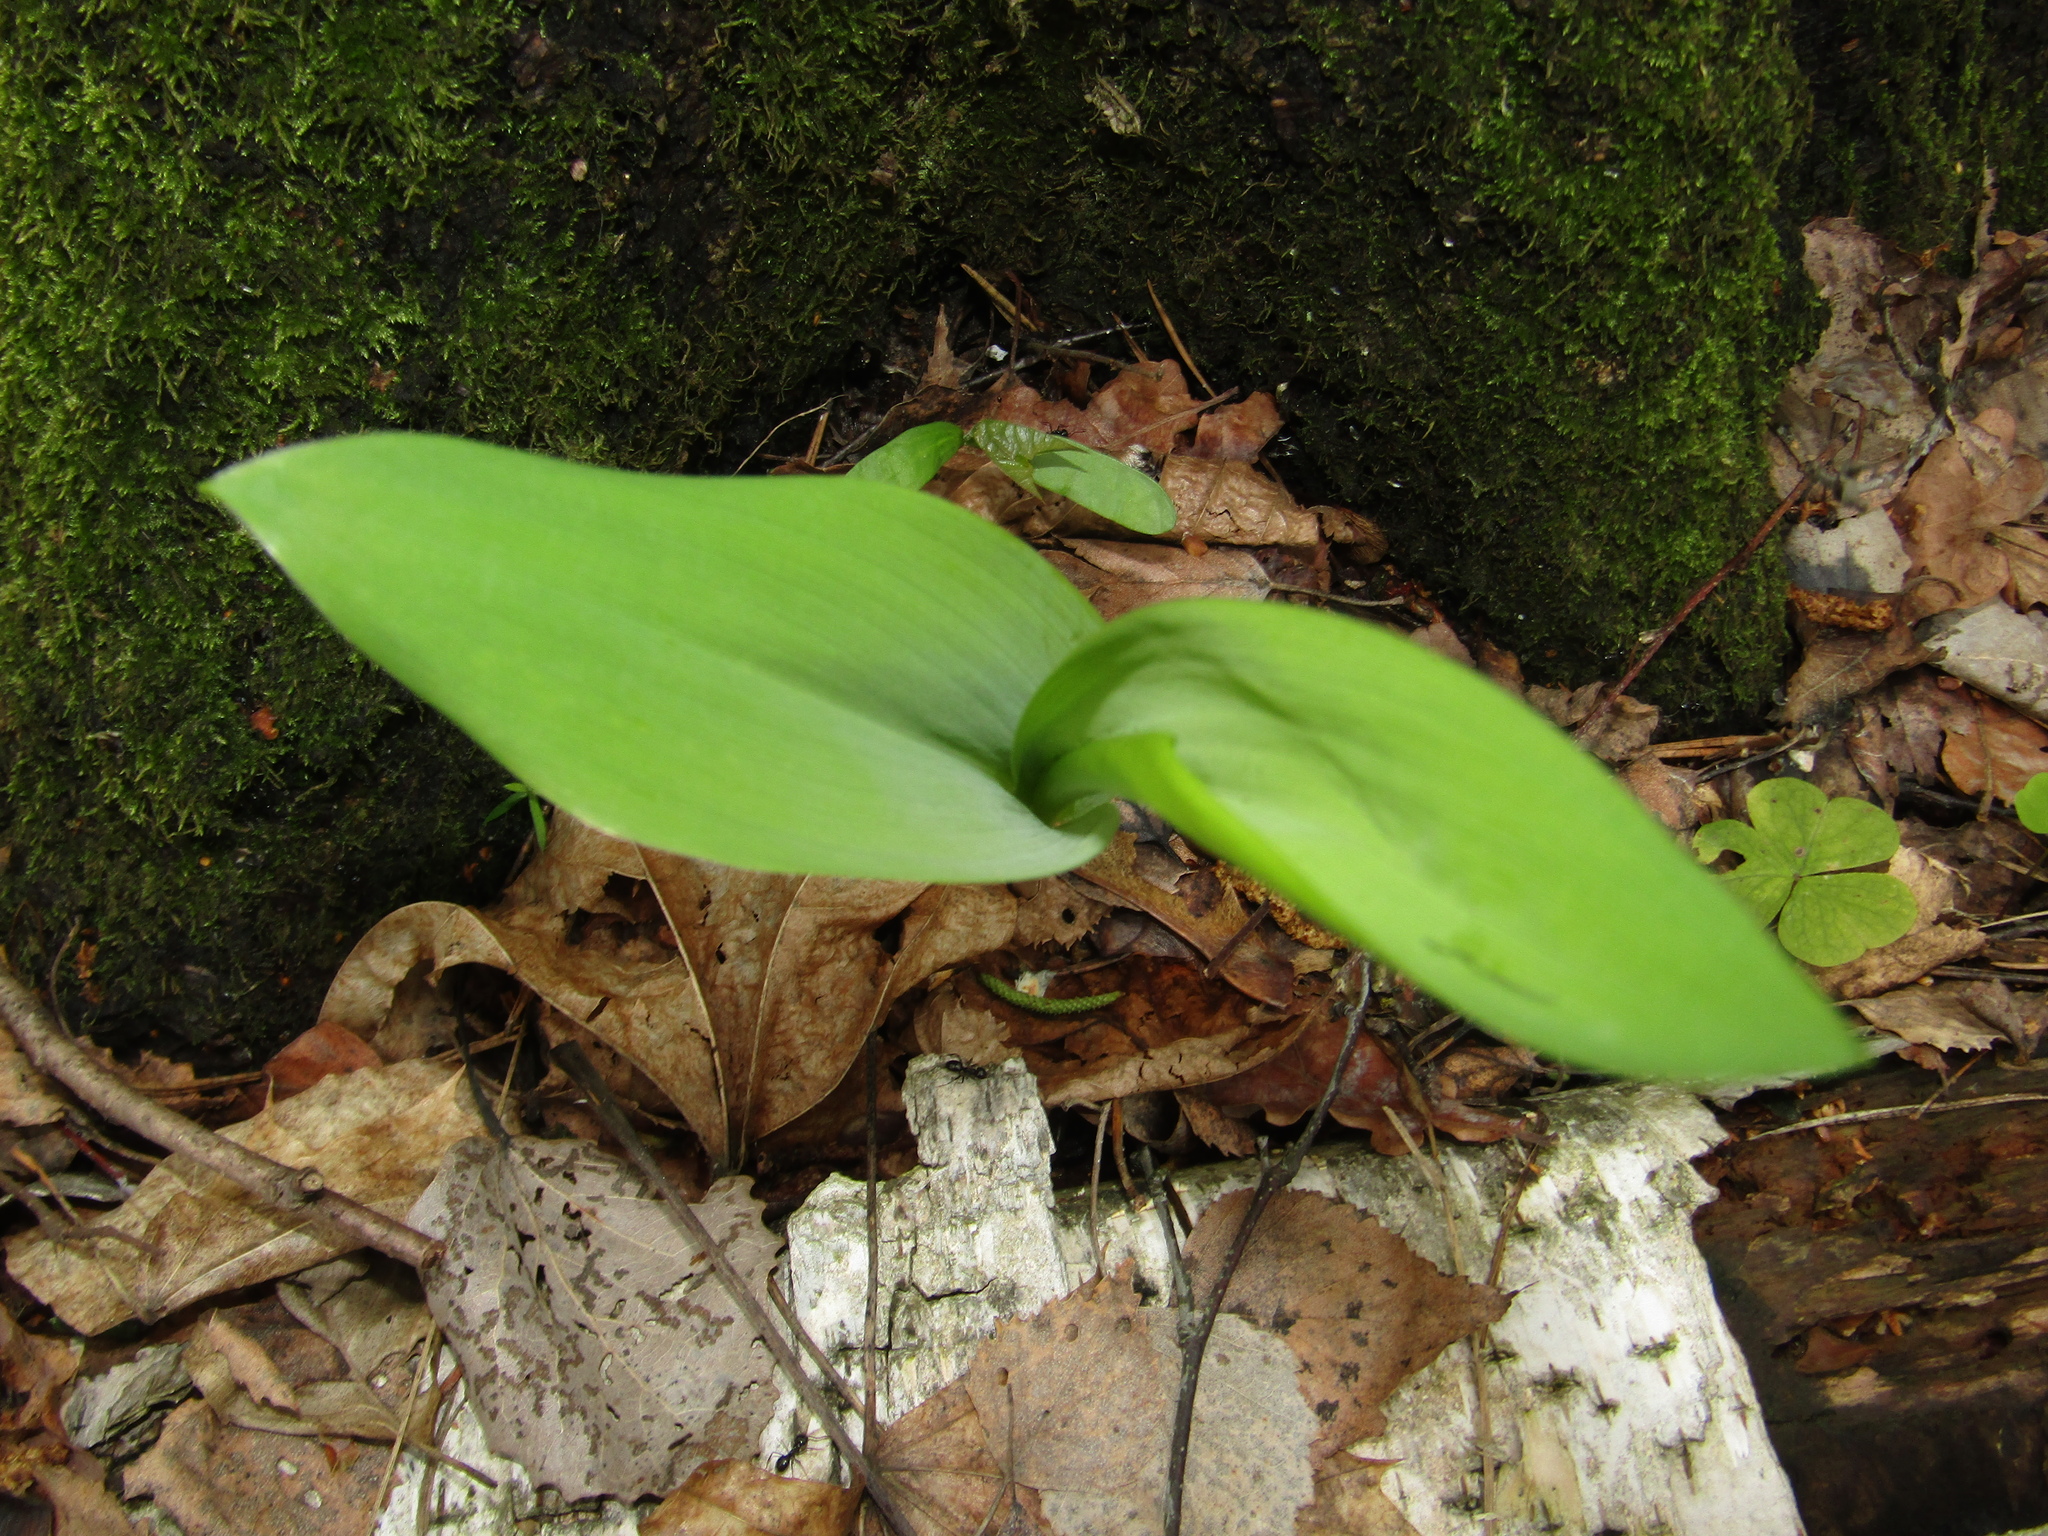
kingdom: Plantae
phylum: Tracheophyta
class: Liliopsida
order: Asparagales
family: Asparagaceae
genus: Convallaria
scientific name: Convallaria majalis
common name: Lily-of-the-valley
